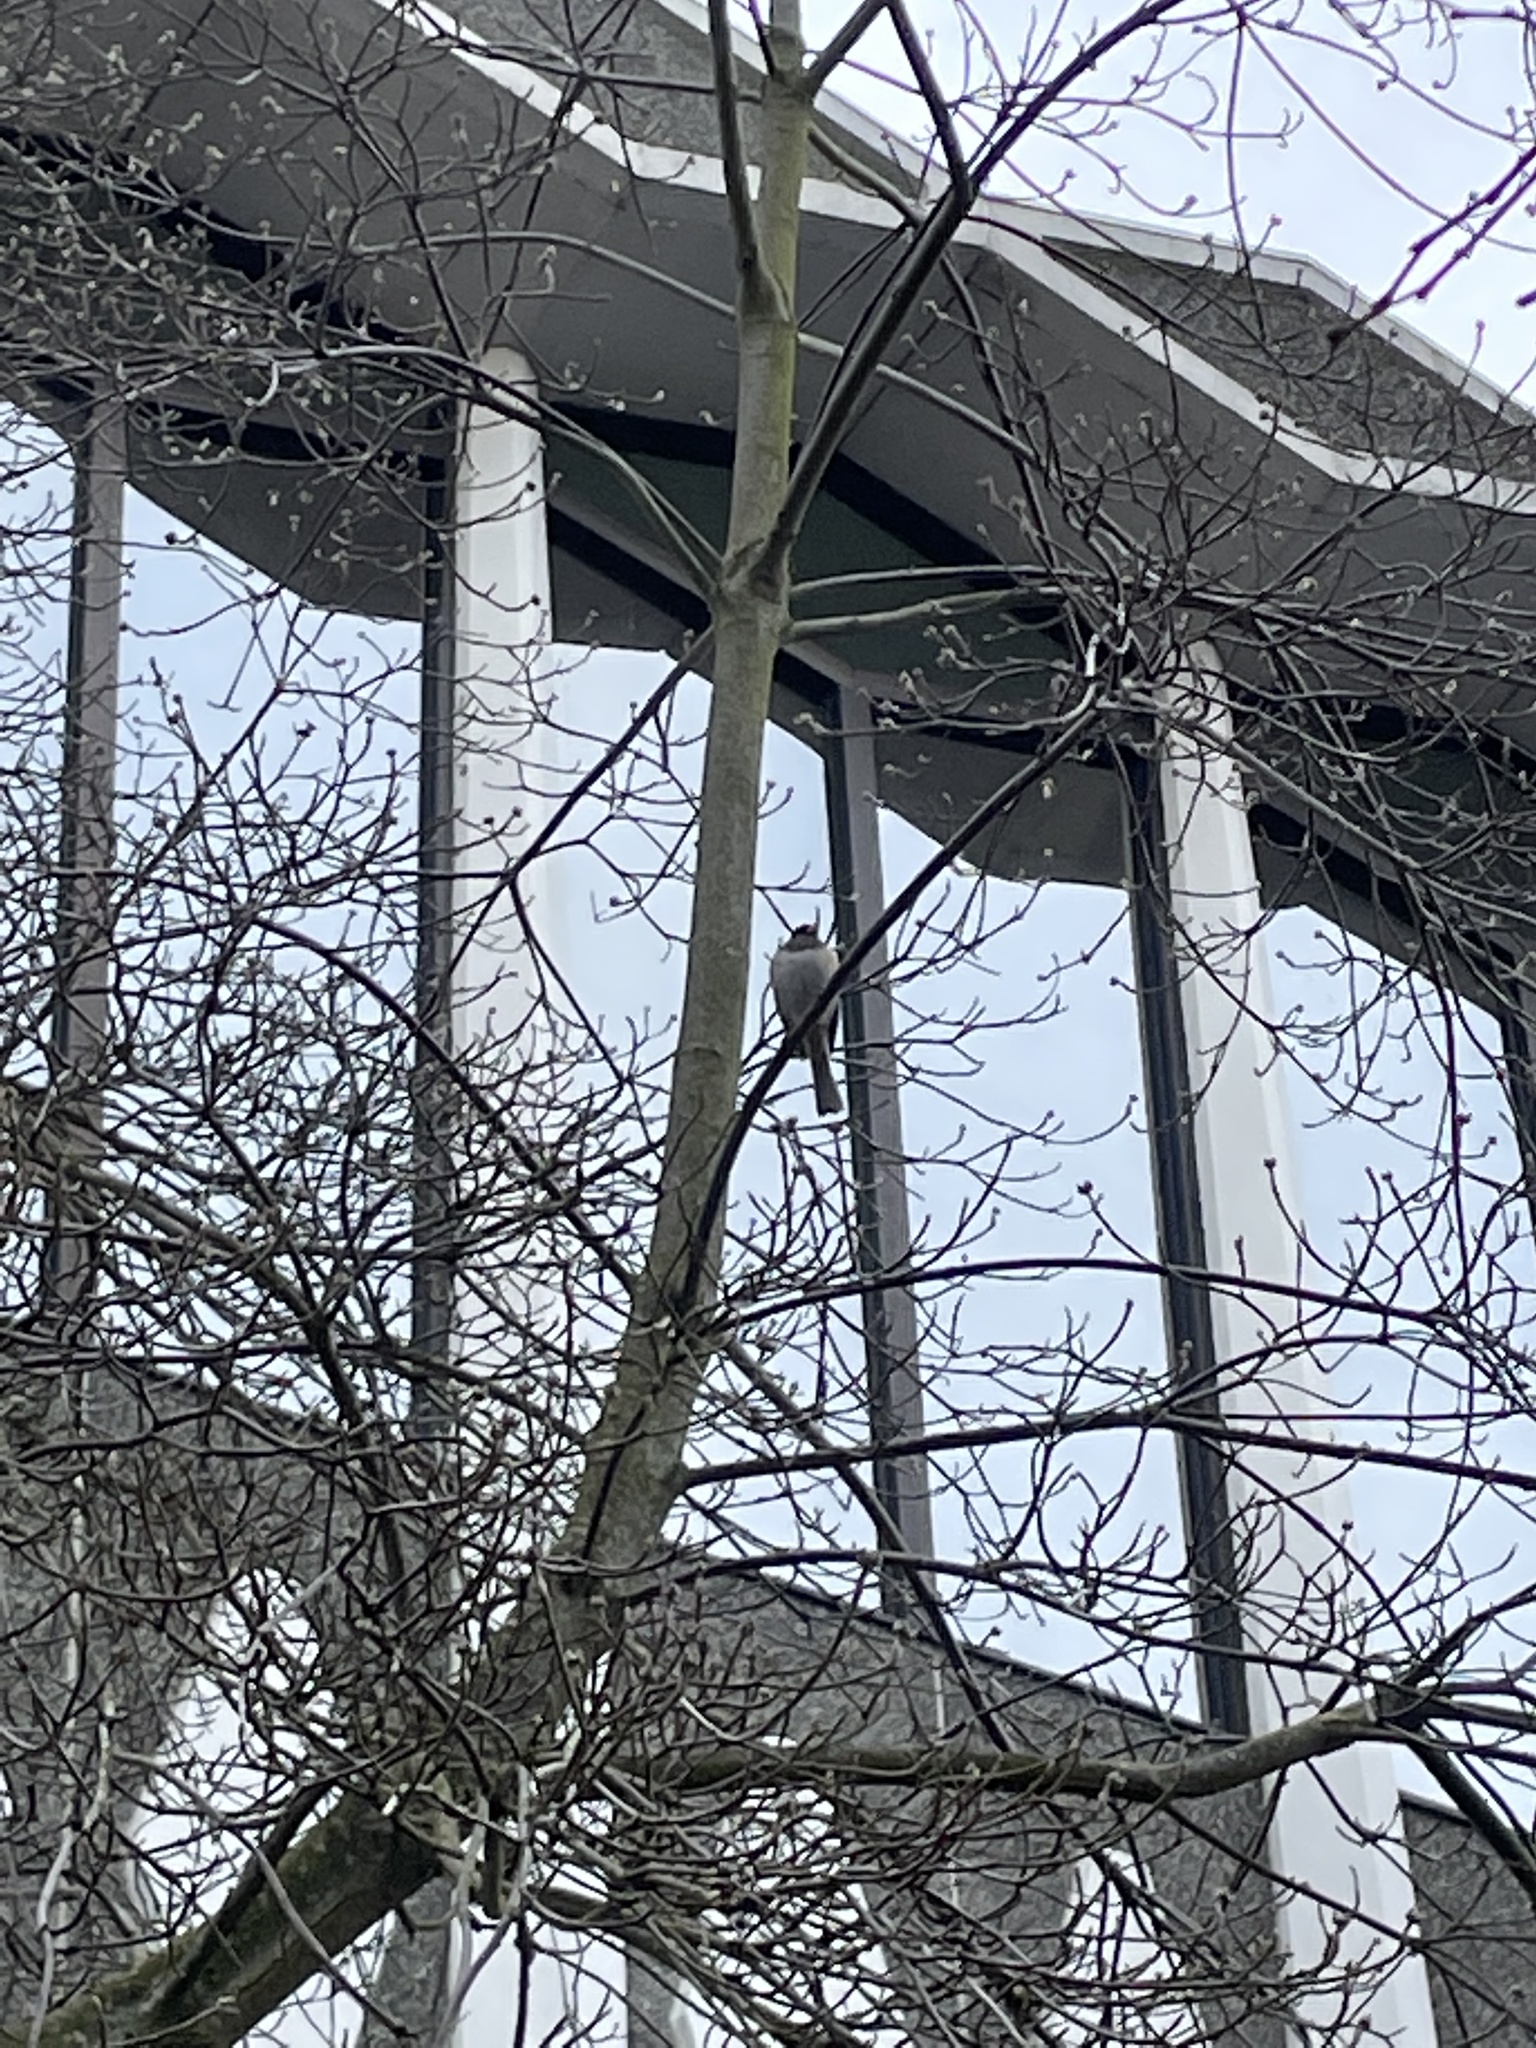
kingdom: Animalia
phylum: Chordata
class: Aves
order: Passeriformes
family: Passerellidae
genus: Junco
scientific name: Junco hyemalis
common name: Dark-eyed junco
